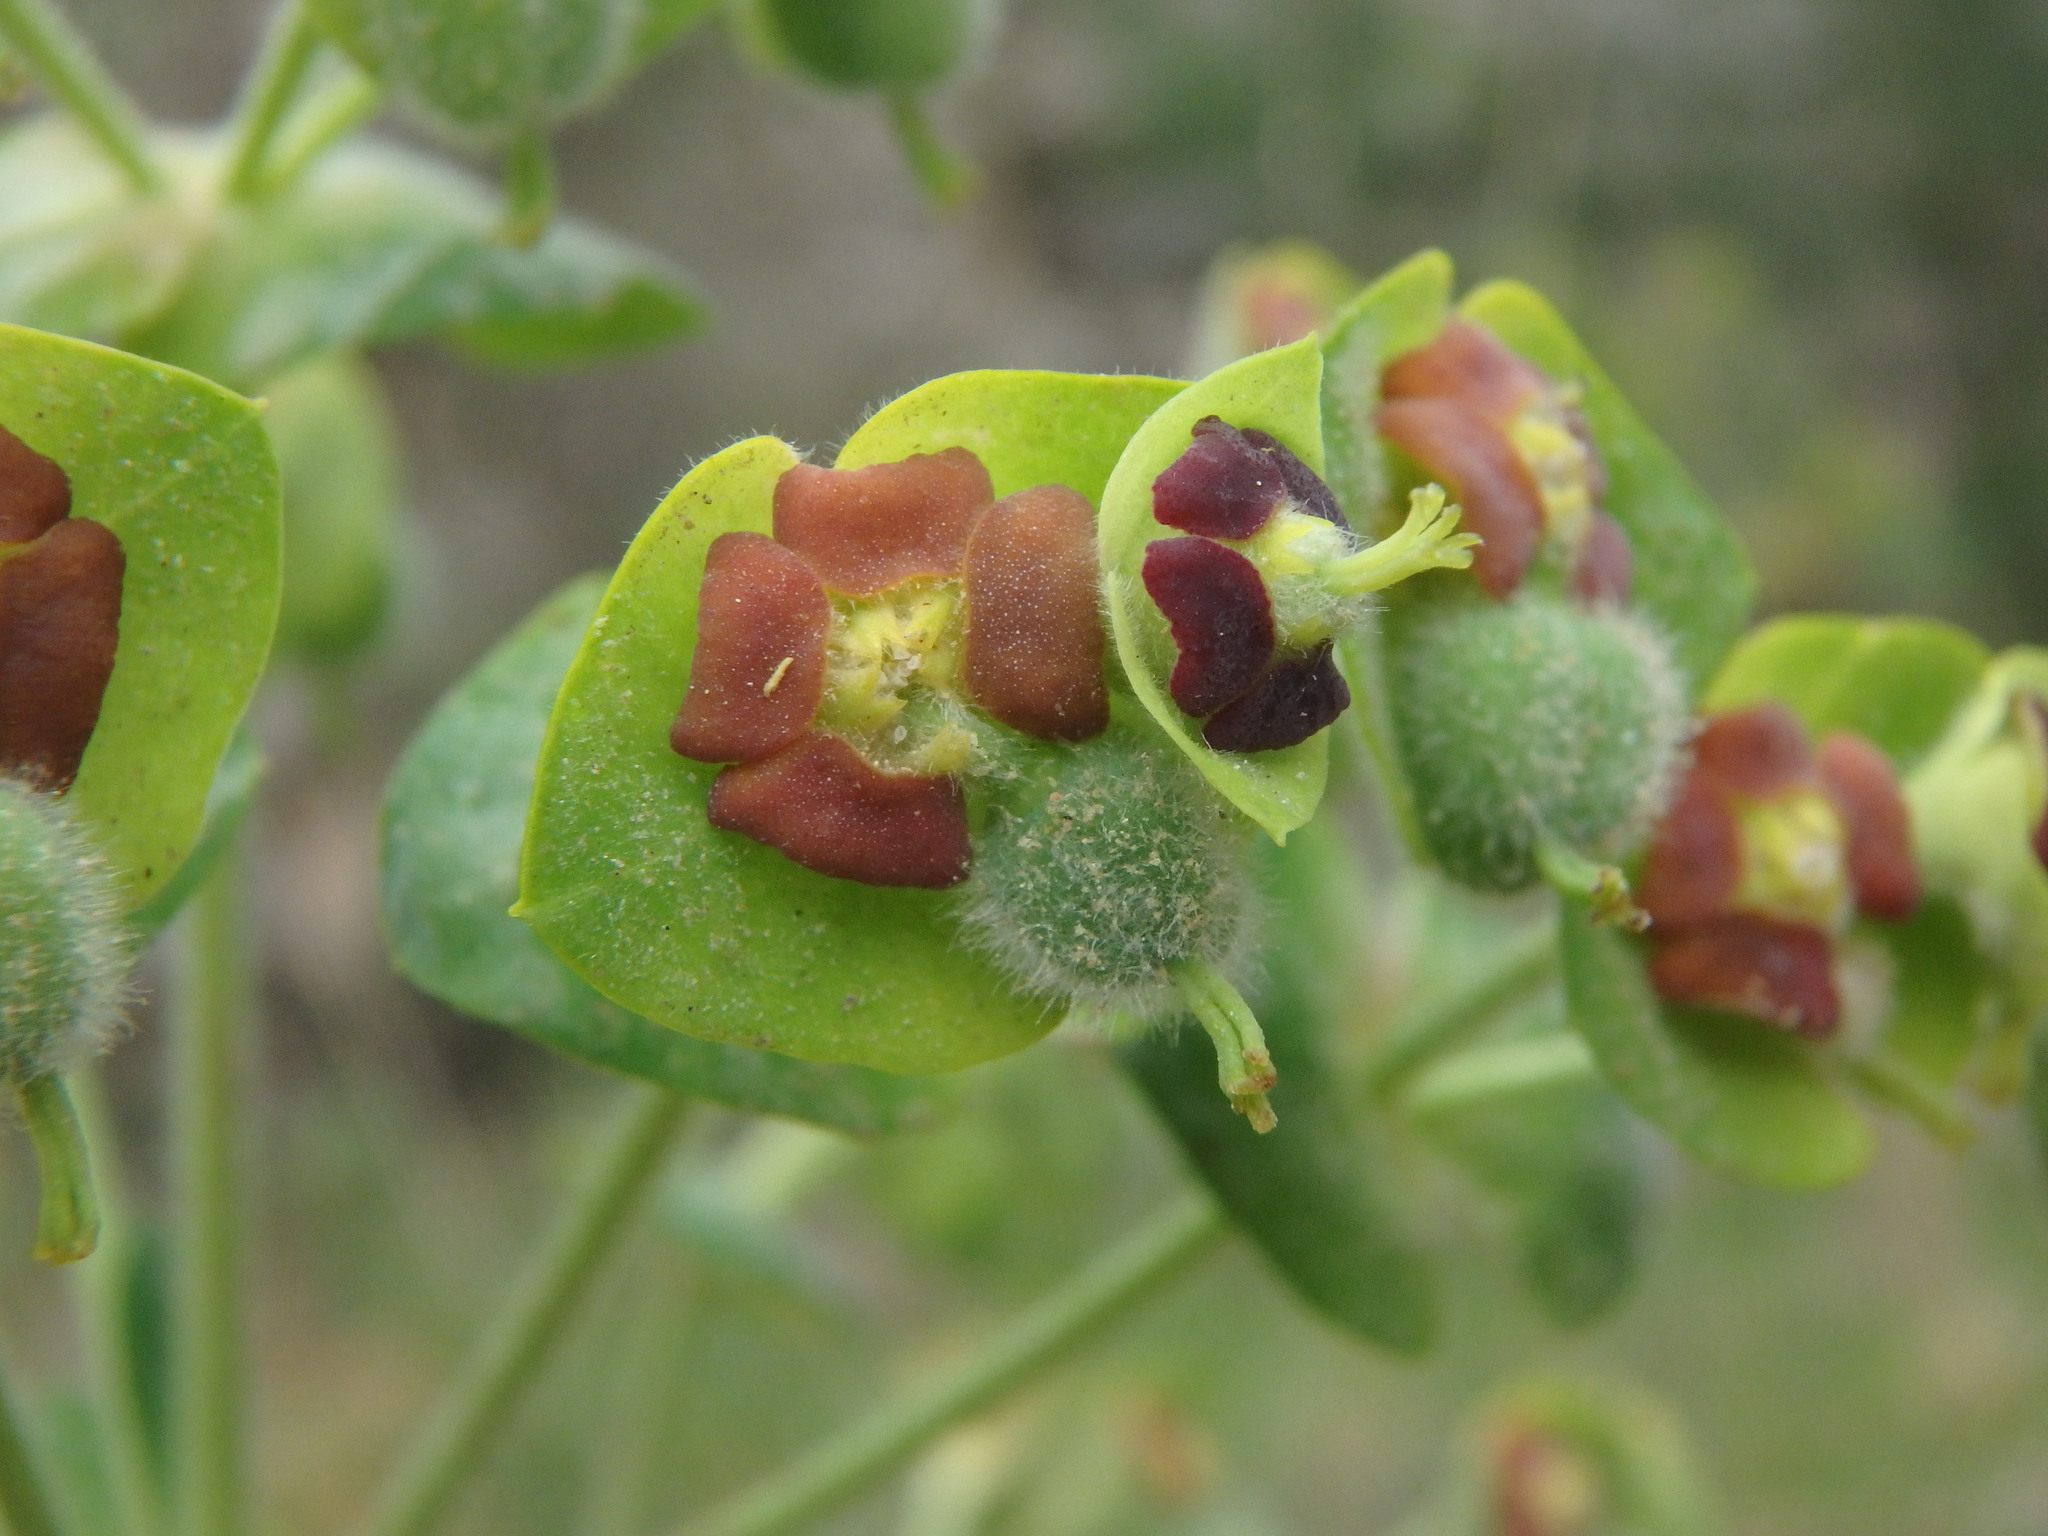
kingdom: Plantae
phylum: Tracheophyta
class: Magnoliopsida
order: Malpighiales
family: Euphorbiaceae
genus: Euphorbia
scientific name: Euphorbia characias
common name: Mediterranean spurge
